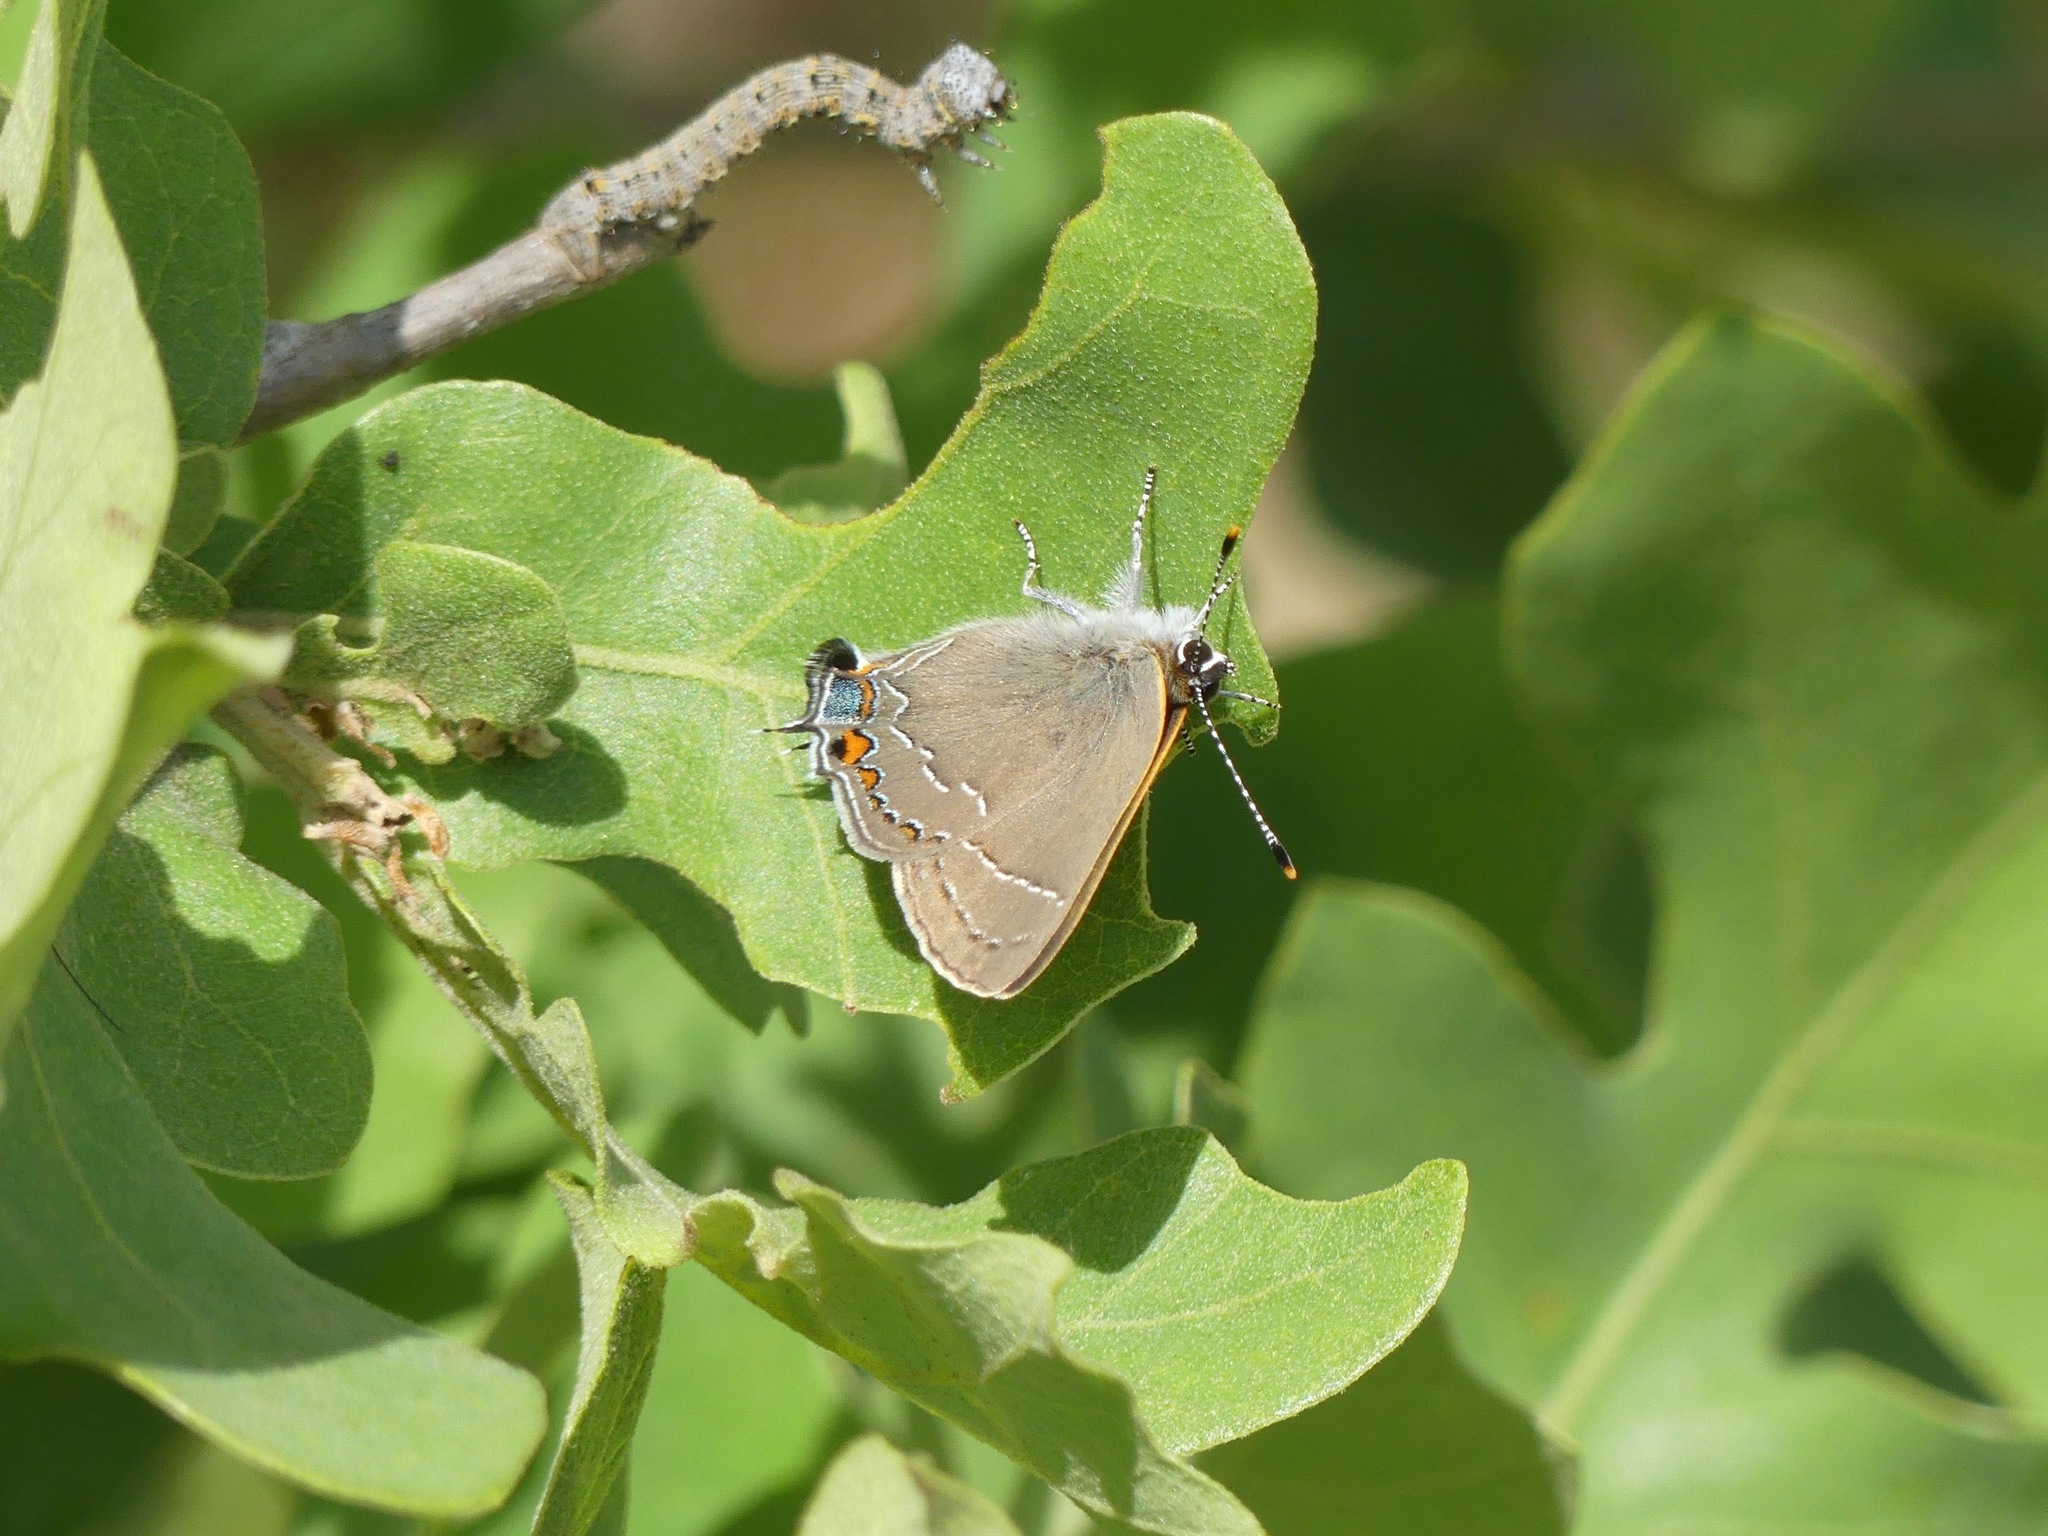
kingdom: Animalia
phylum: Arthropoda
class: Insecta
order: Lepidoptera
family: Lycaenidae
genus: Fixsenia
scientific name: Fixsenia ontario
